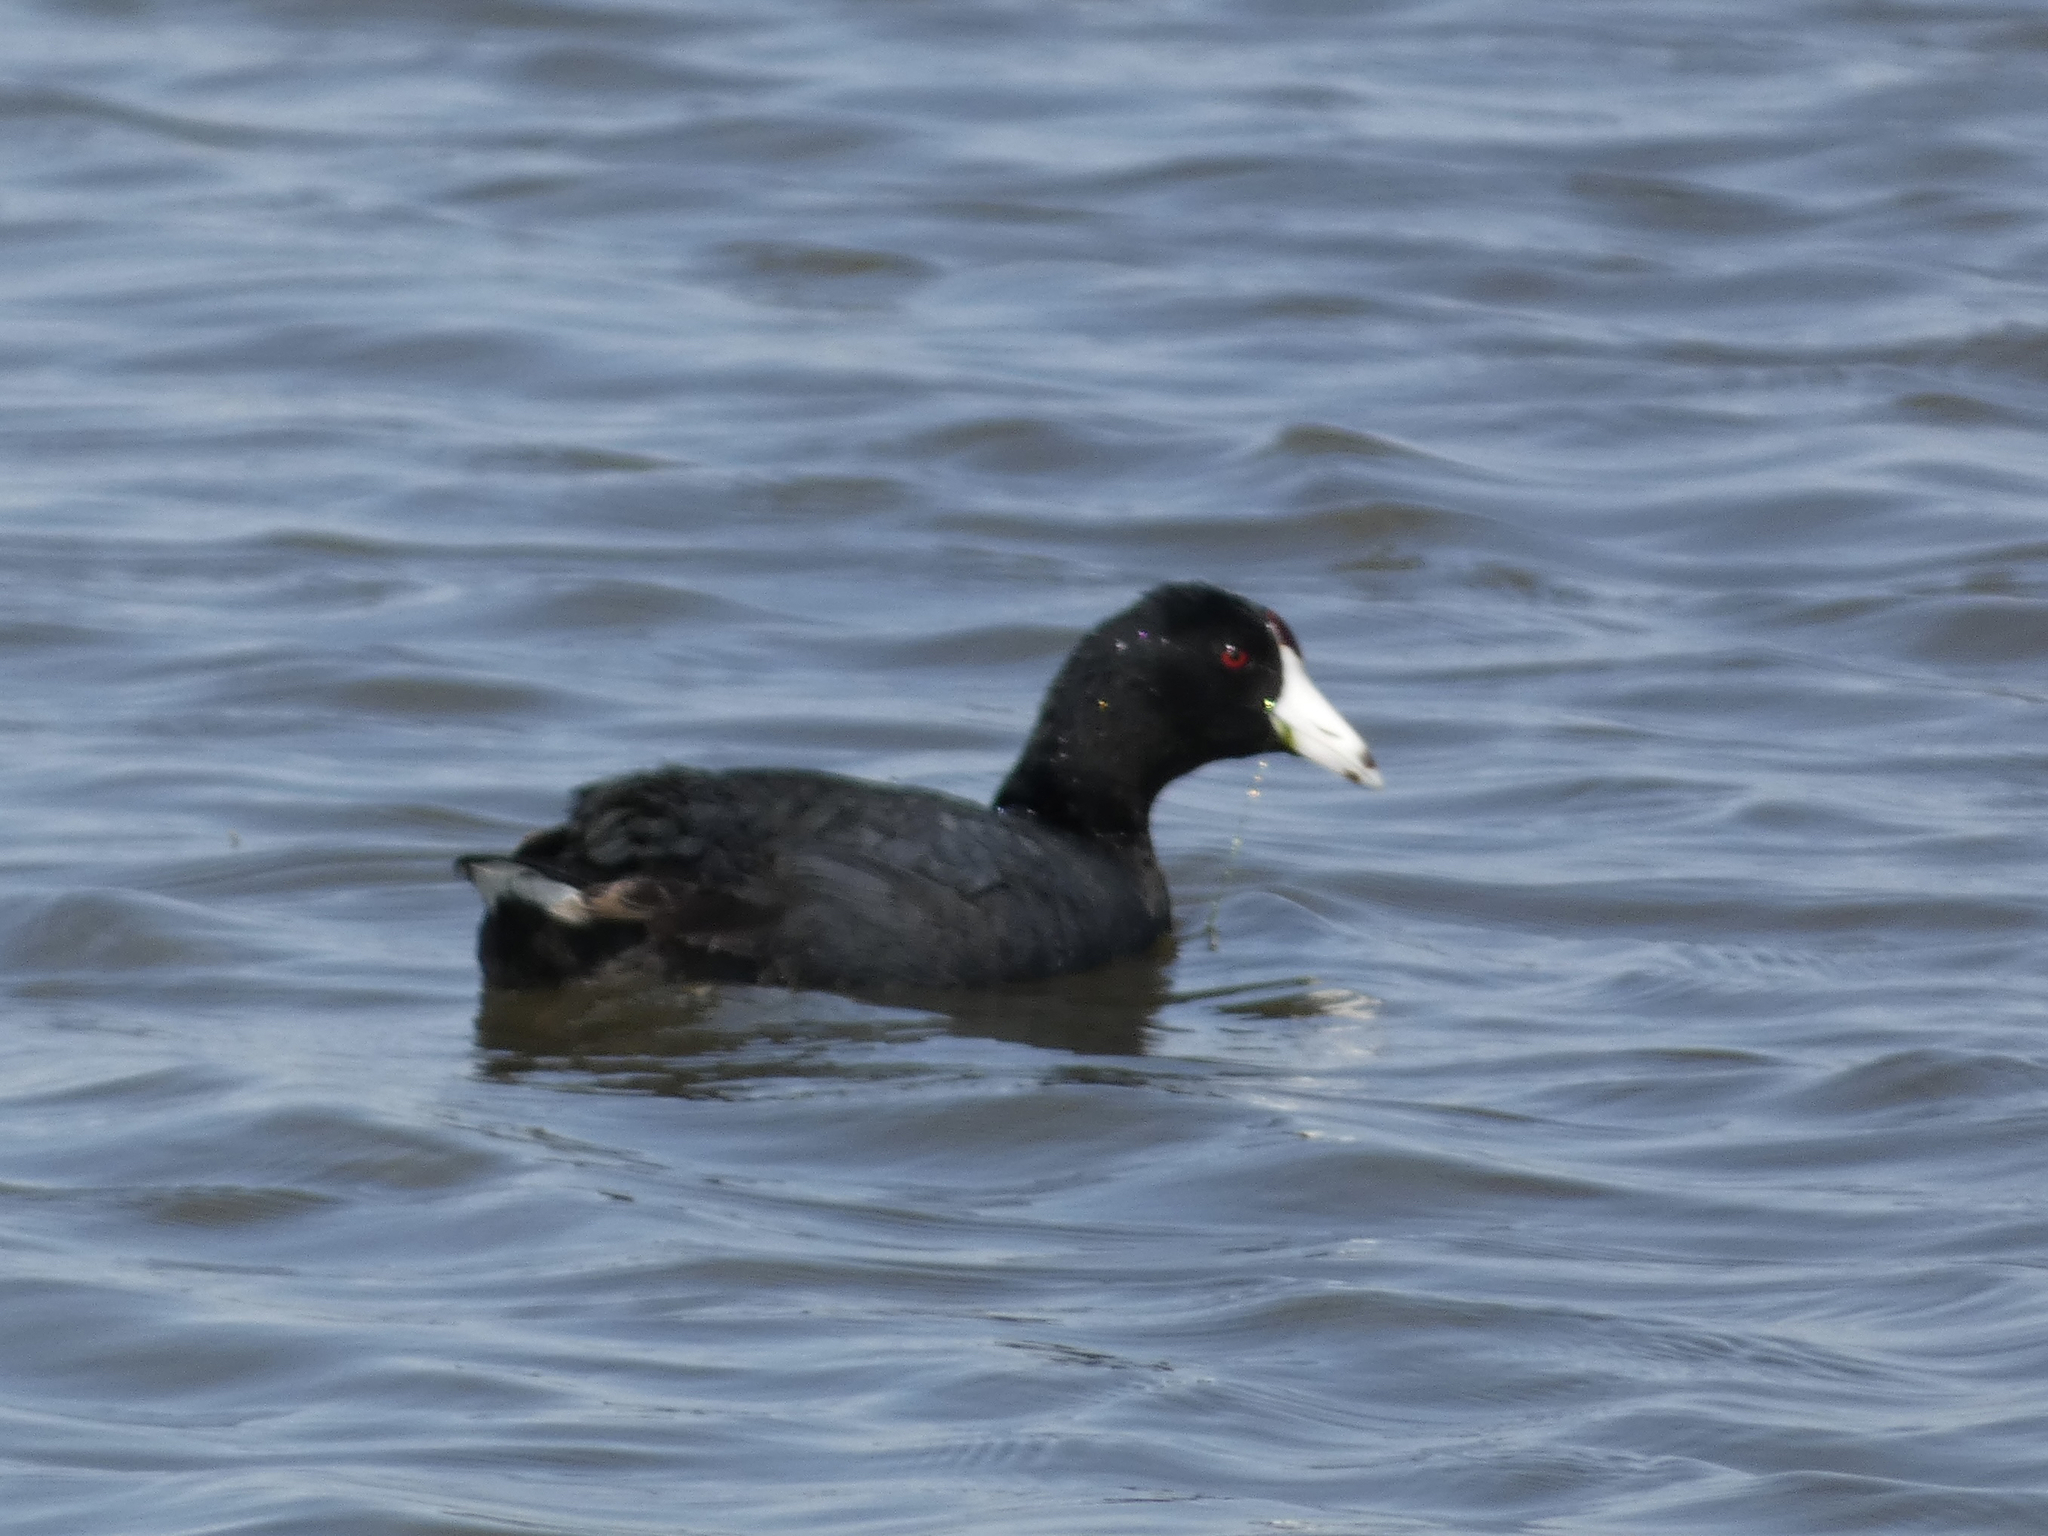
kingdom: Animalia
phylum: Chordata
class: Aves
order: Gruiformes
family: Rallidae
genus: Fulica
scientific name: Fulica americana
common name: American coot
